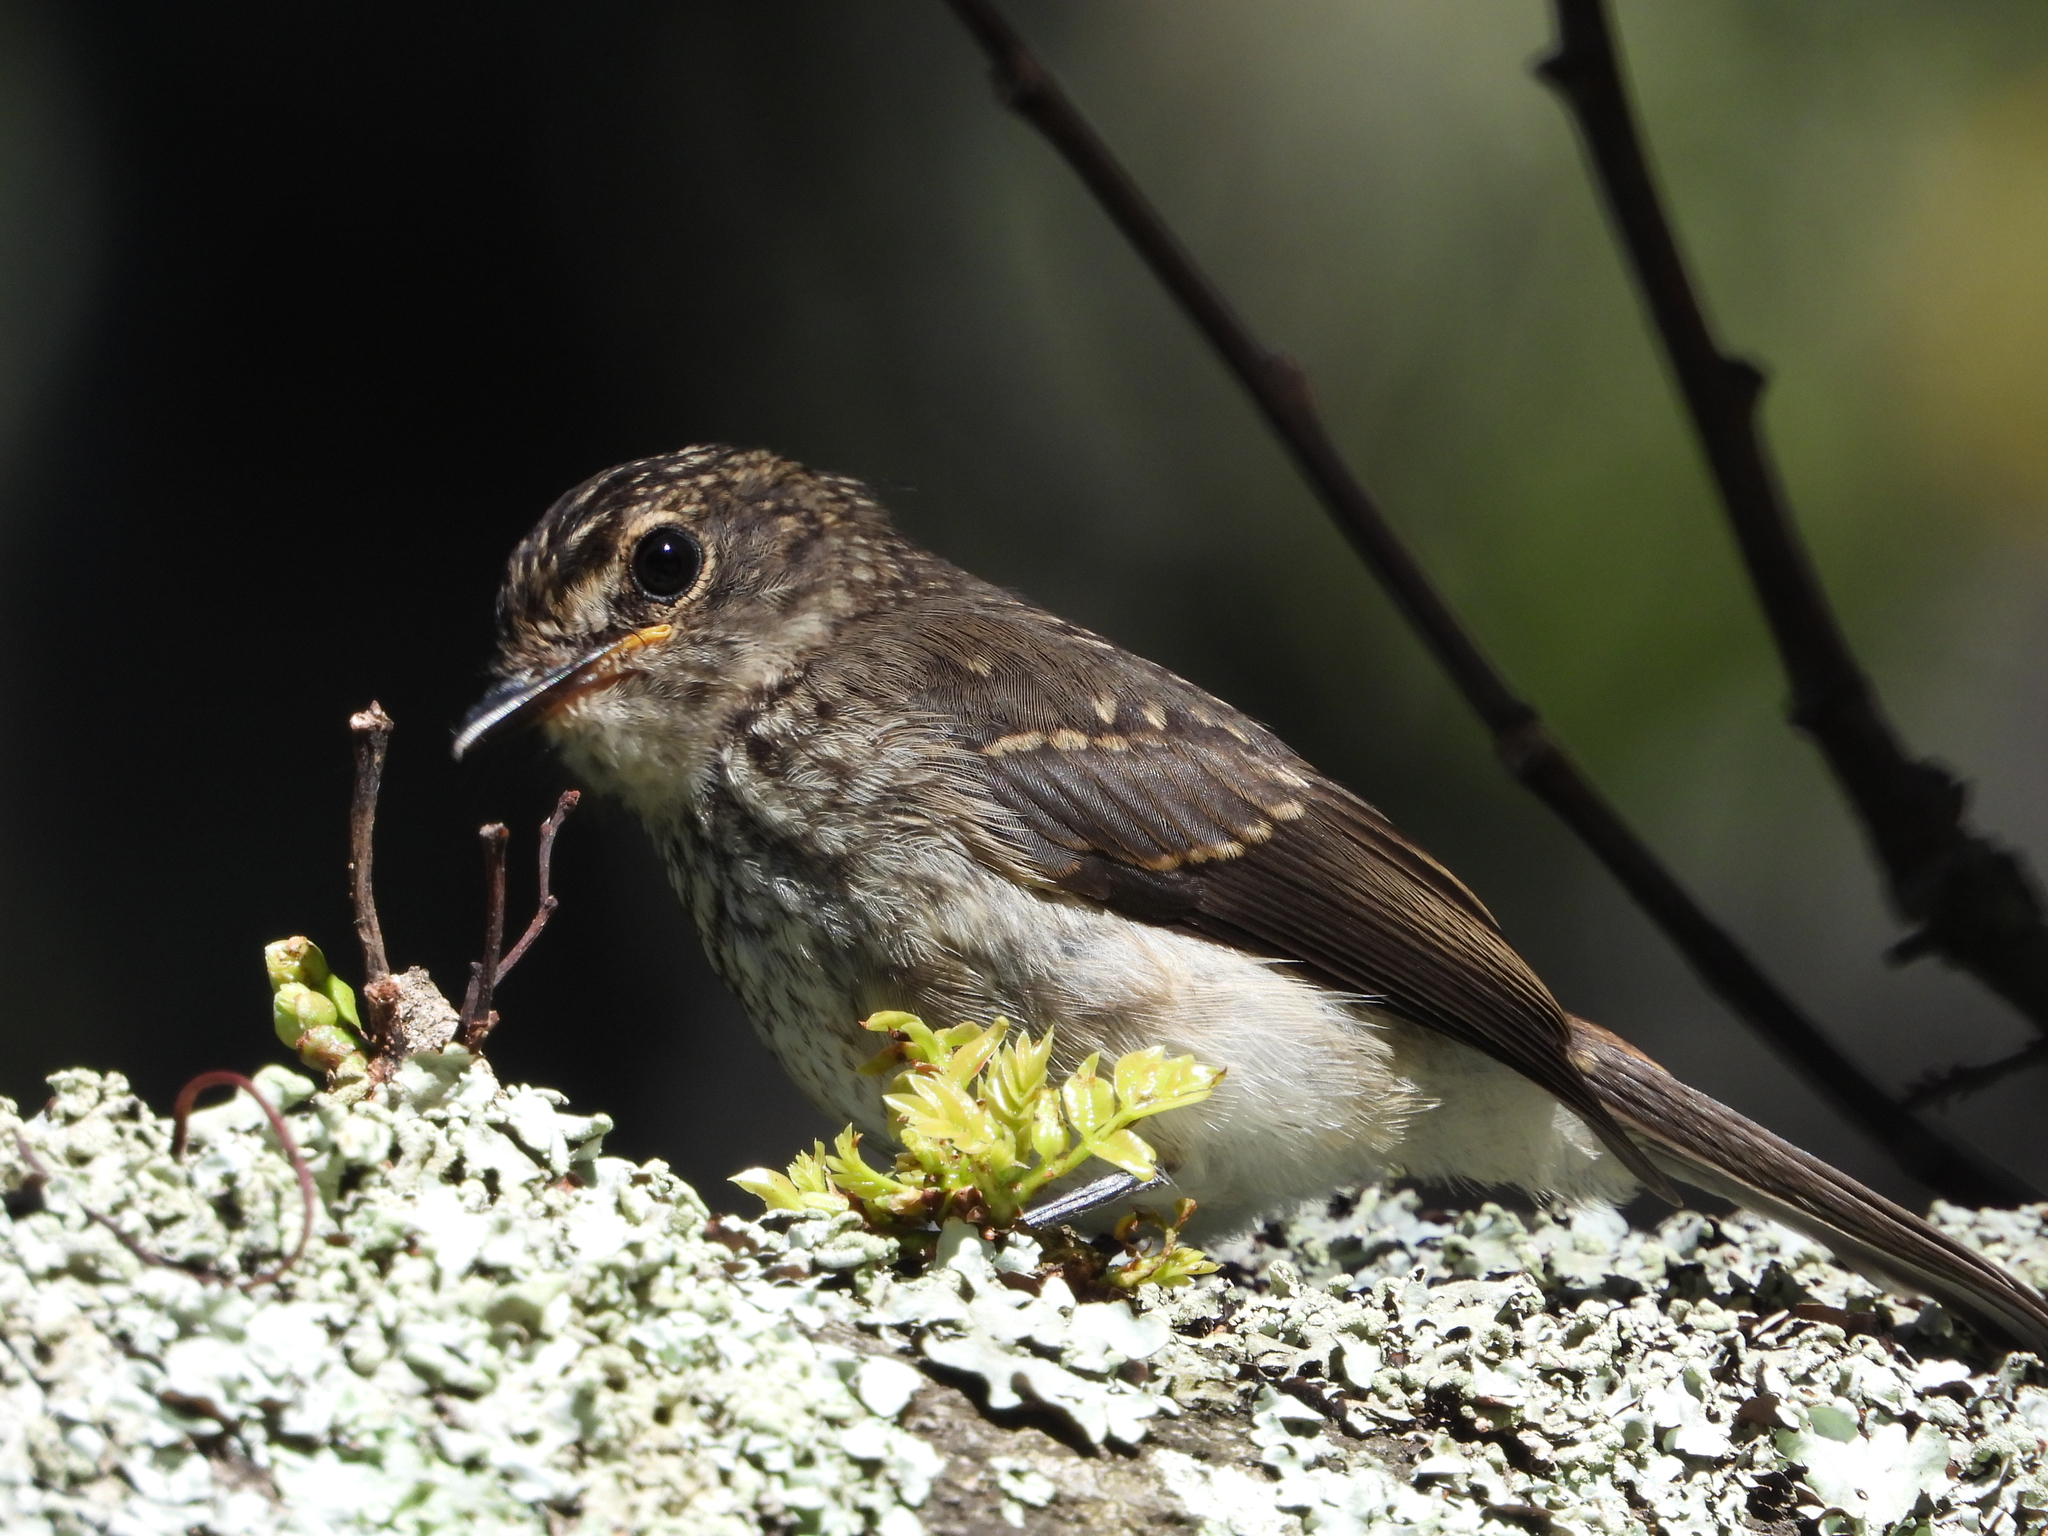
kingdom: Animalia
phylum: Chordata
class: Aves
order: Passeriformes
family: Muscicapidae
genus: Muscicapa
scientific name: Muscicapa adusta
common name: African dusky flycatcher
